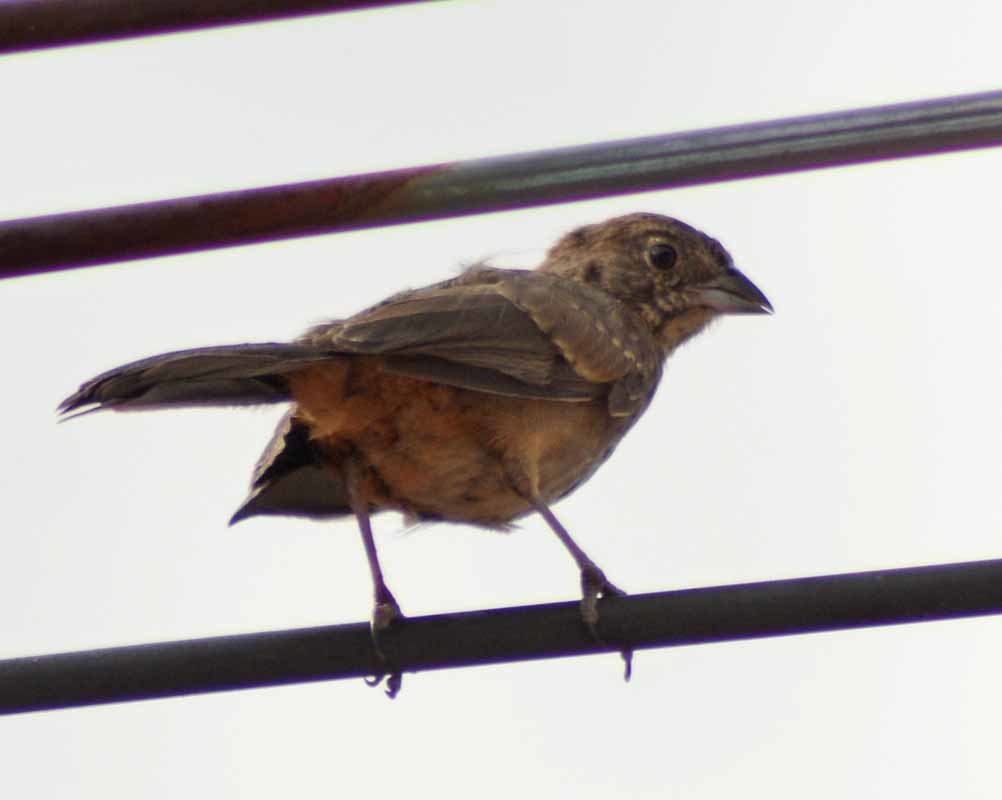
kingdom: Animalia
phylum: Chordata
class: Aves
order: Passeriformes
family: Passerellidae
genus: Melozone
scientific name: Melozone fusca
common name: Canyon towhee
